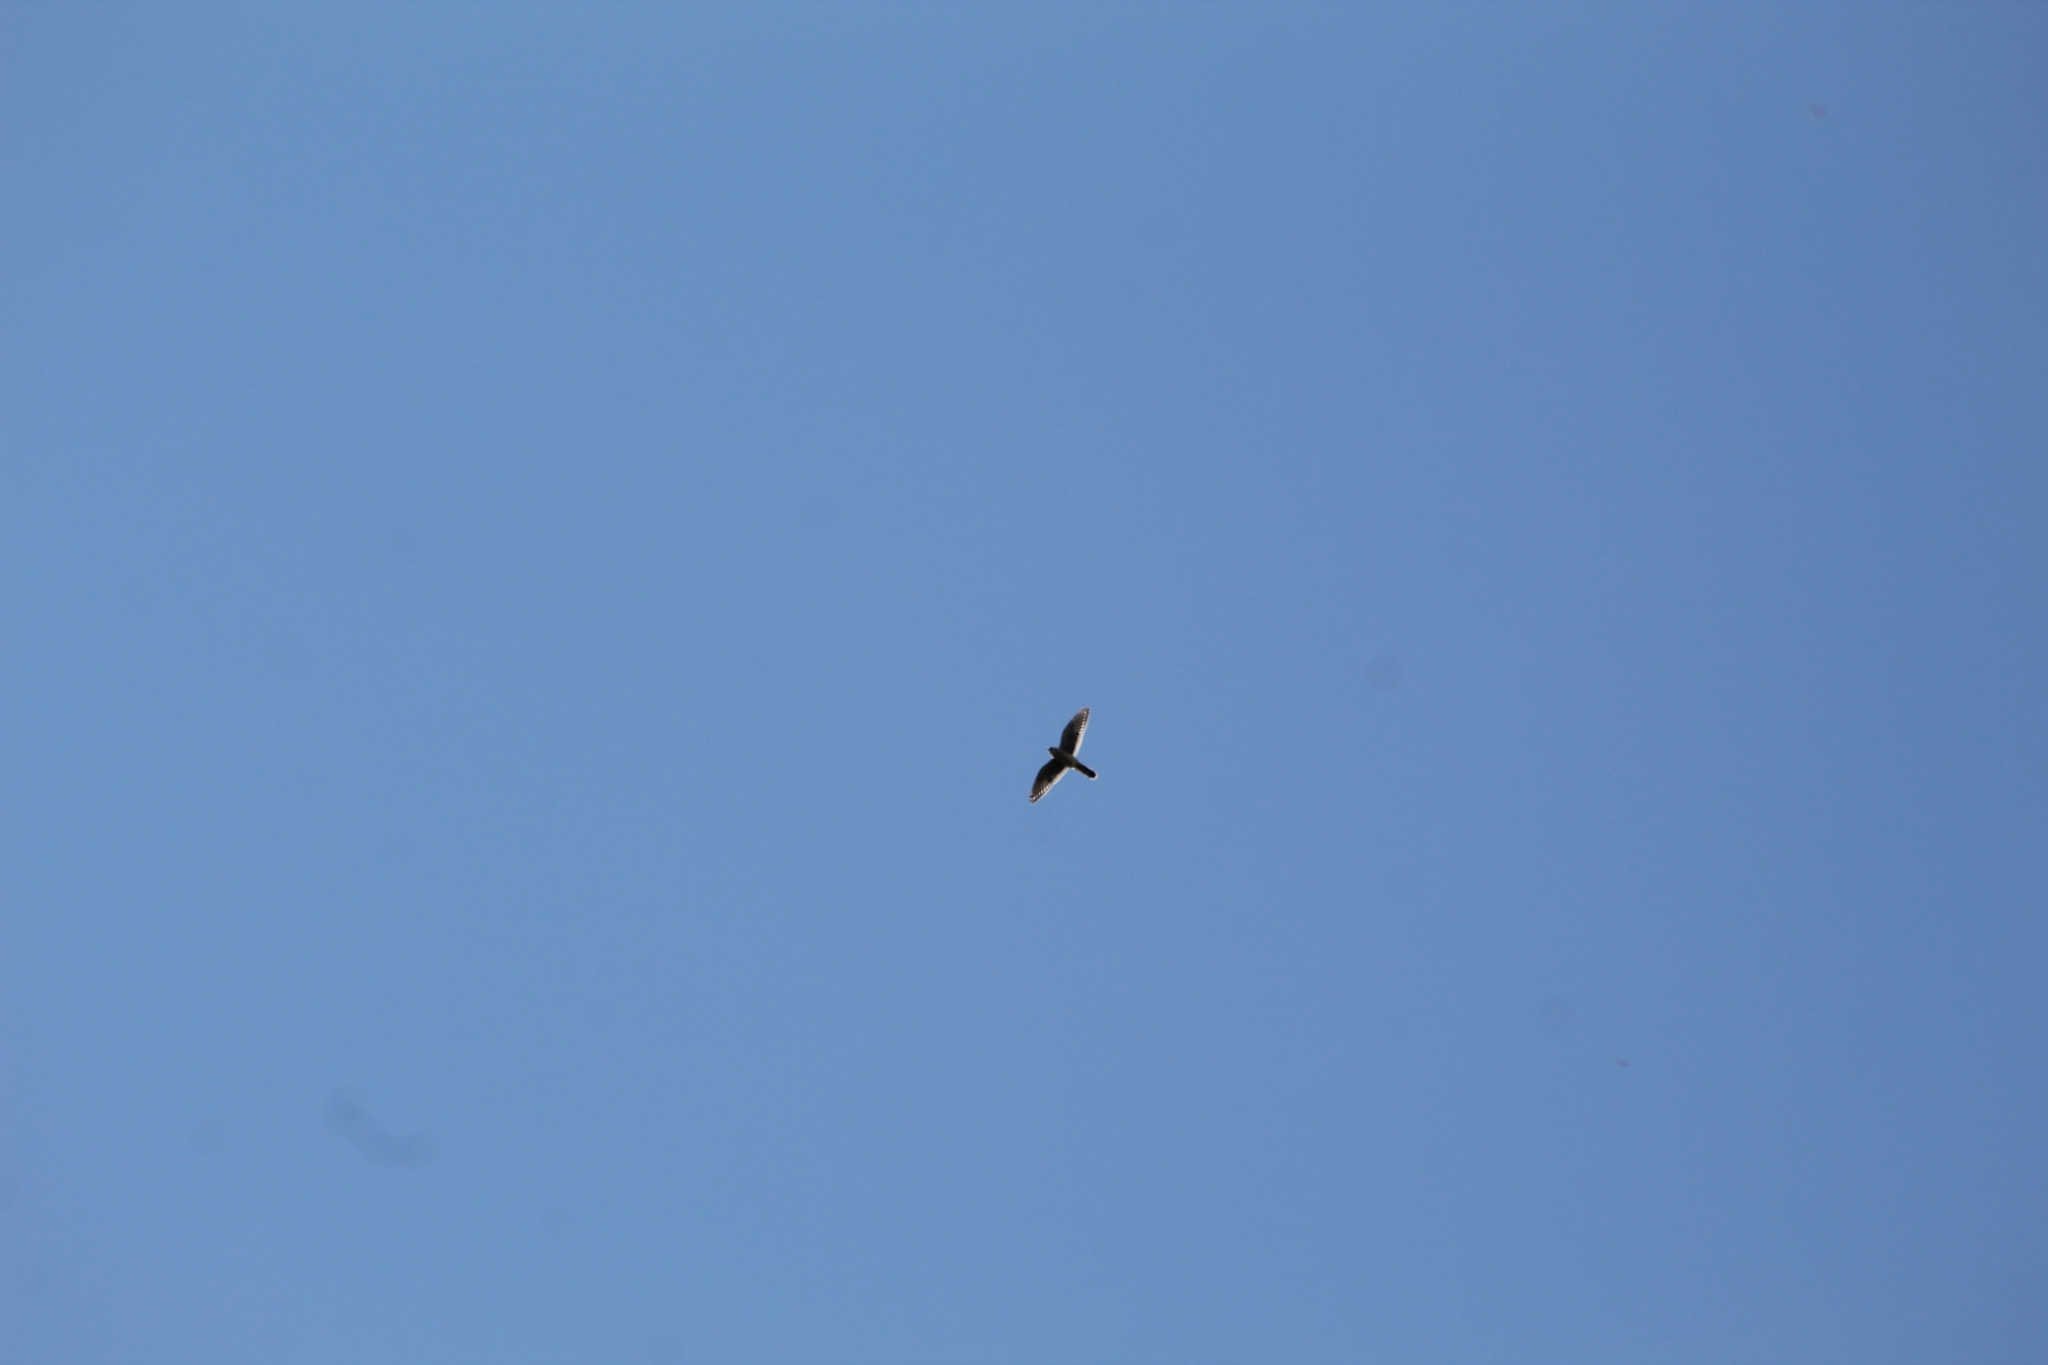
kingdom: Animalia
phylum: Chordata
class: Aves
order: Falconiformes
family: Falconidae
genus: Falco
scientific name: Falco sparverius
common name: American kestrel
